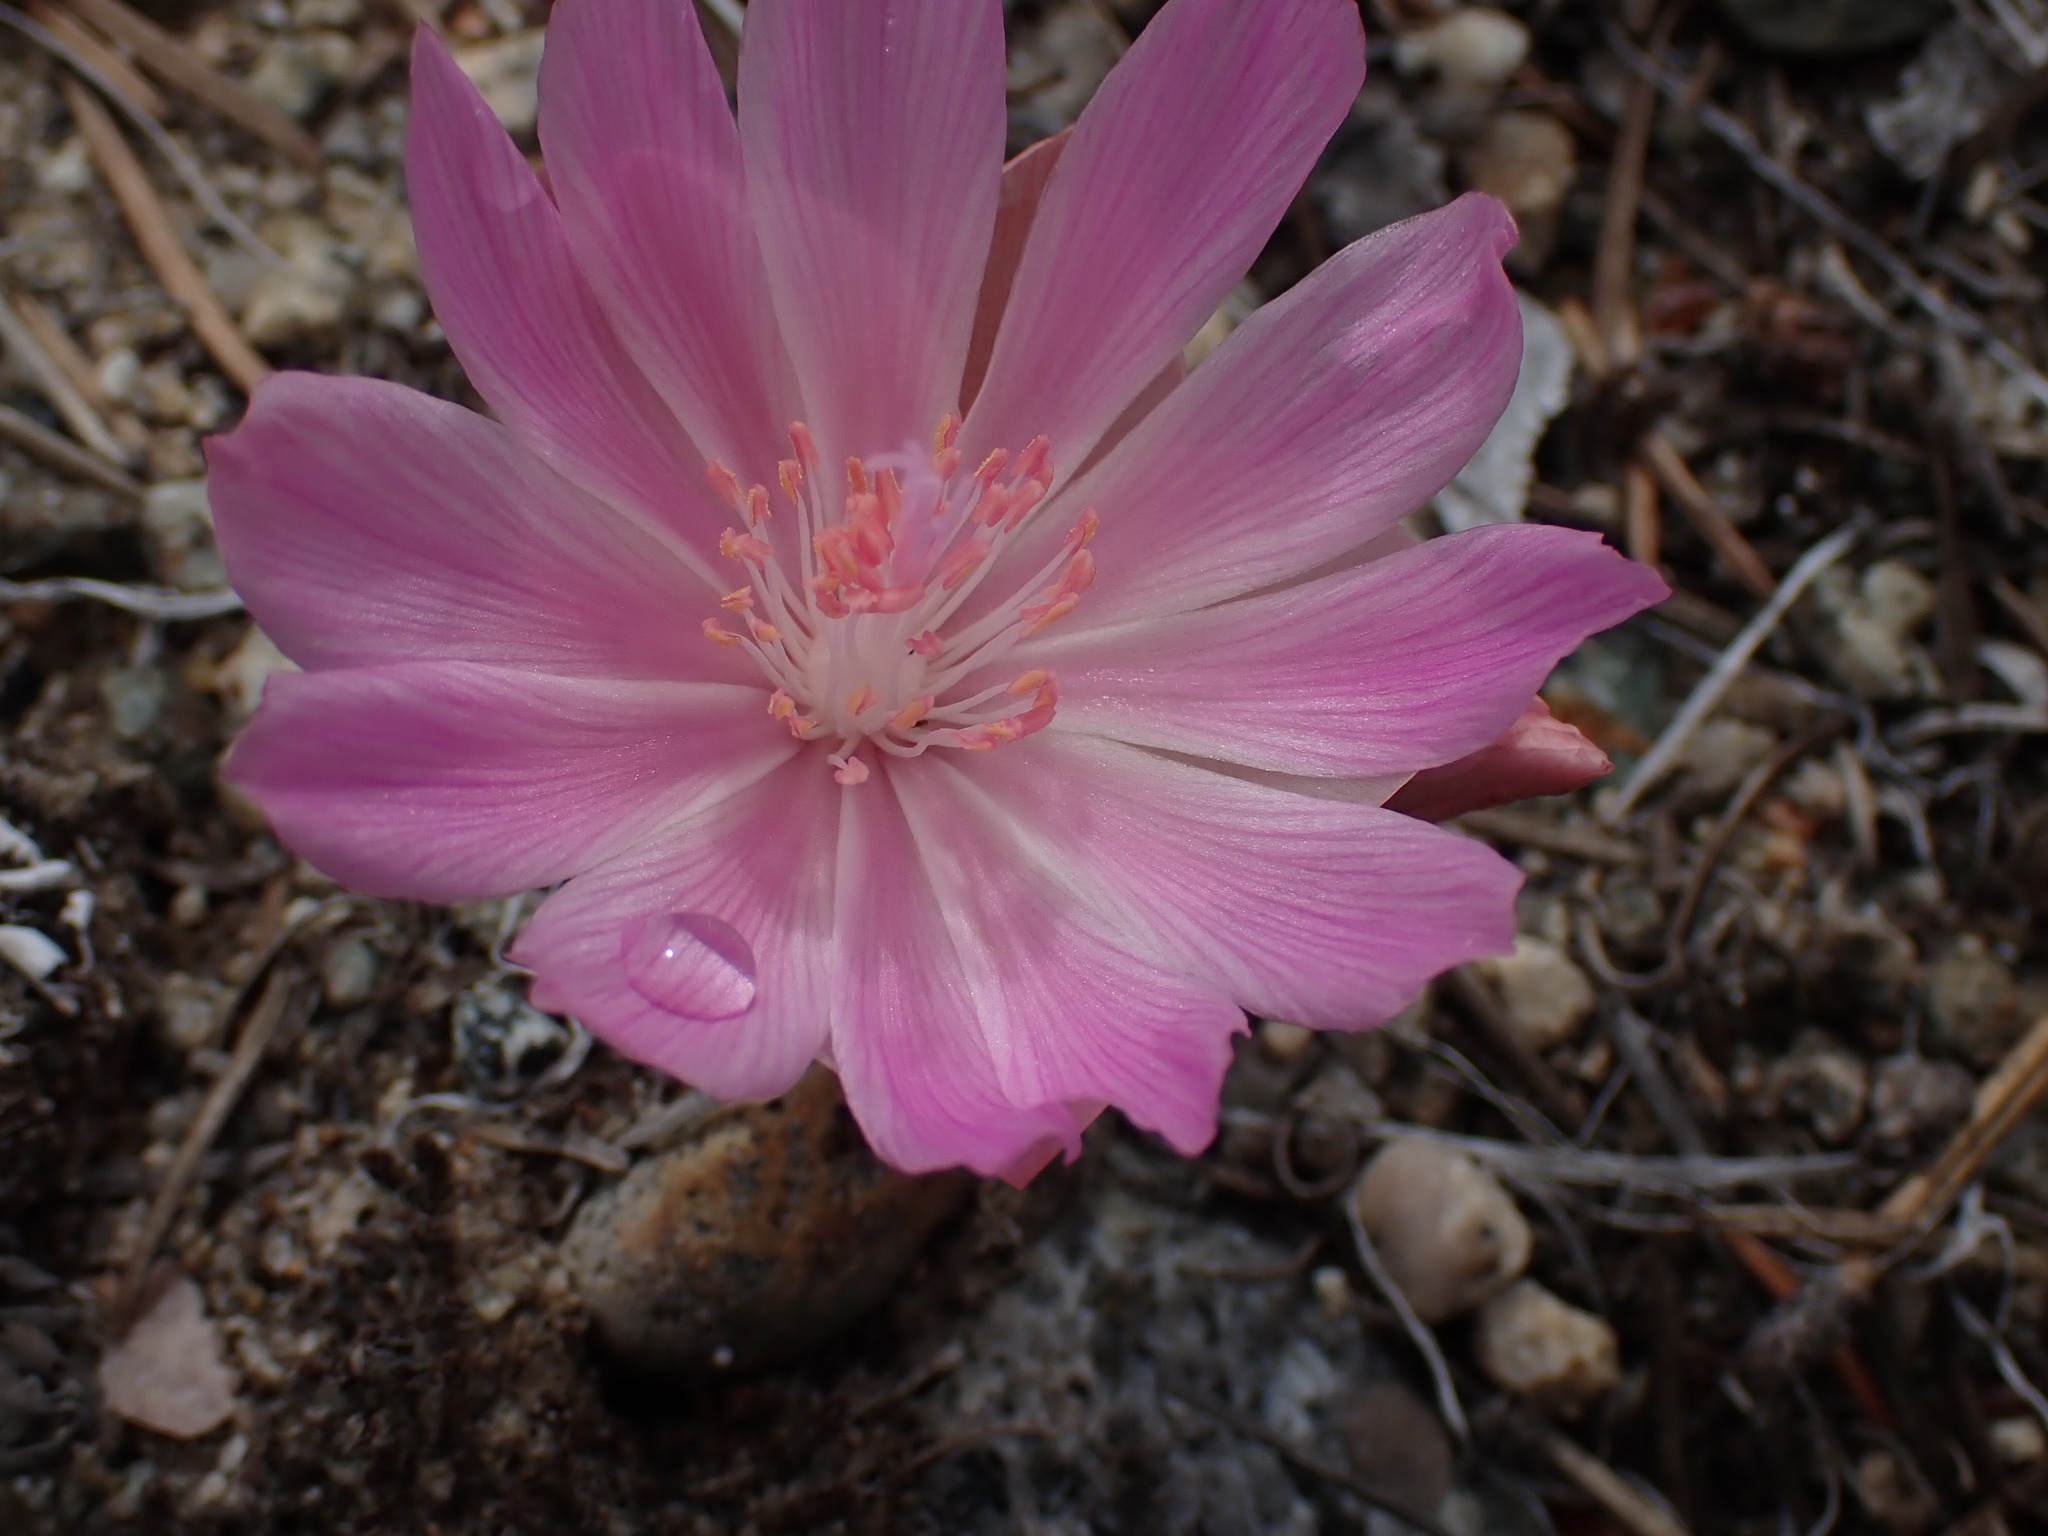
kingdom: Plantae
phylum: Tracheophyta
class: Magnoliopsida
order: Caryophyllales
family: Montiaceae
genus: Lewisia
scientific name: Lewisia rediviva
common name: Bitter-root
